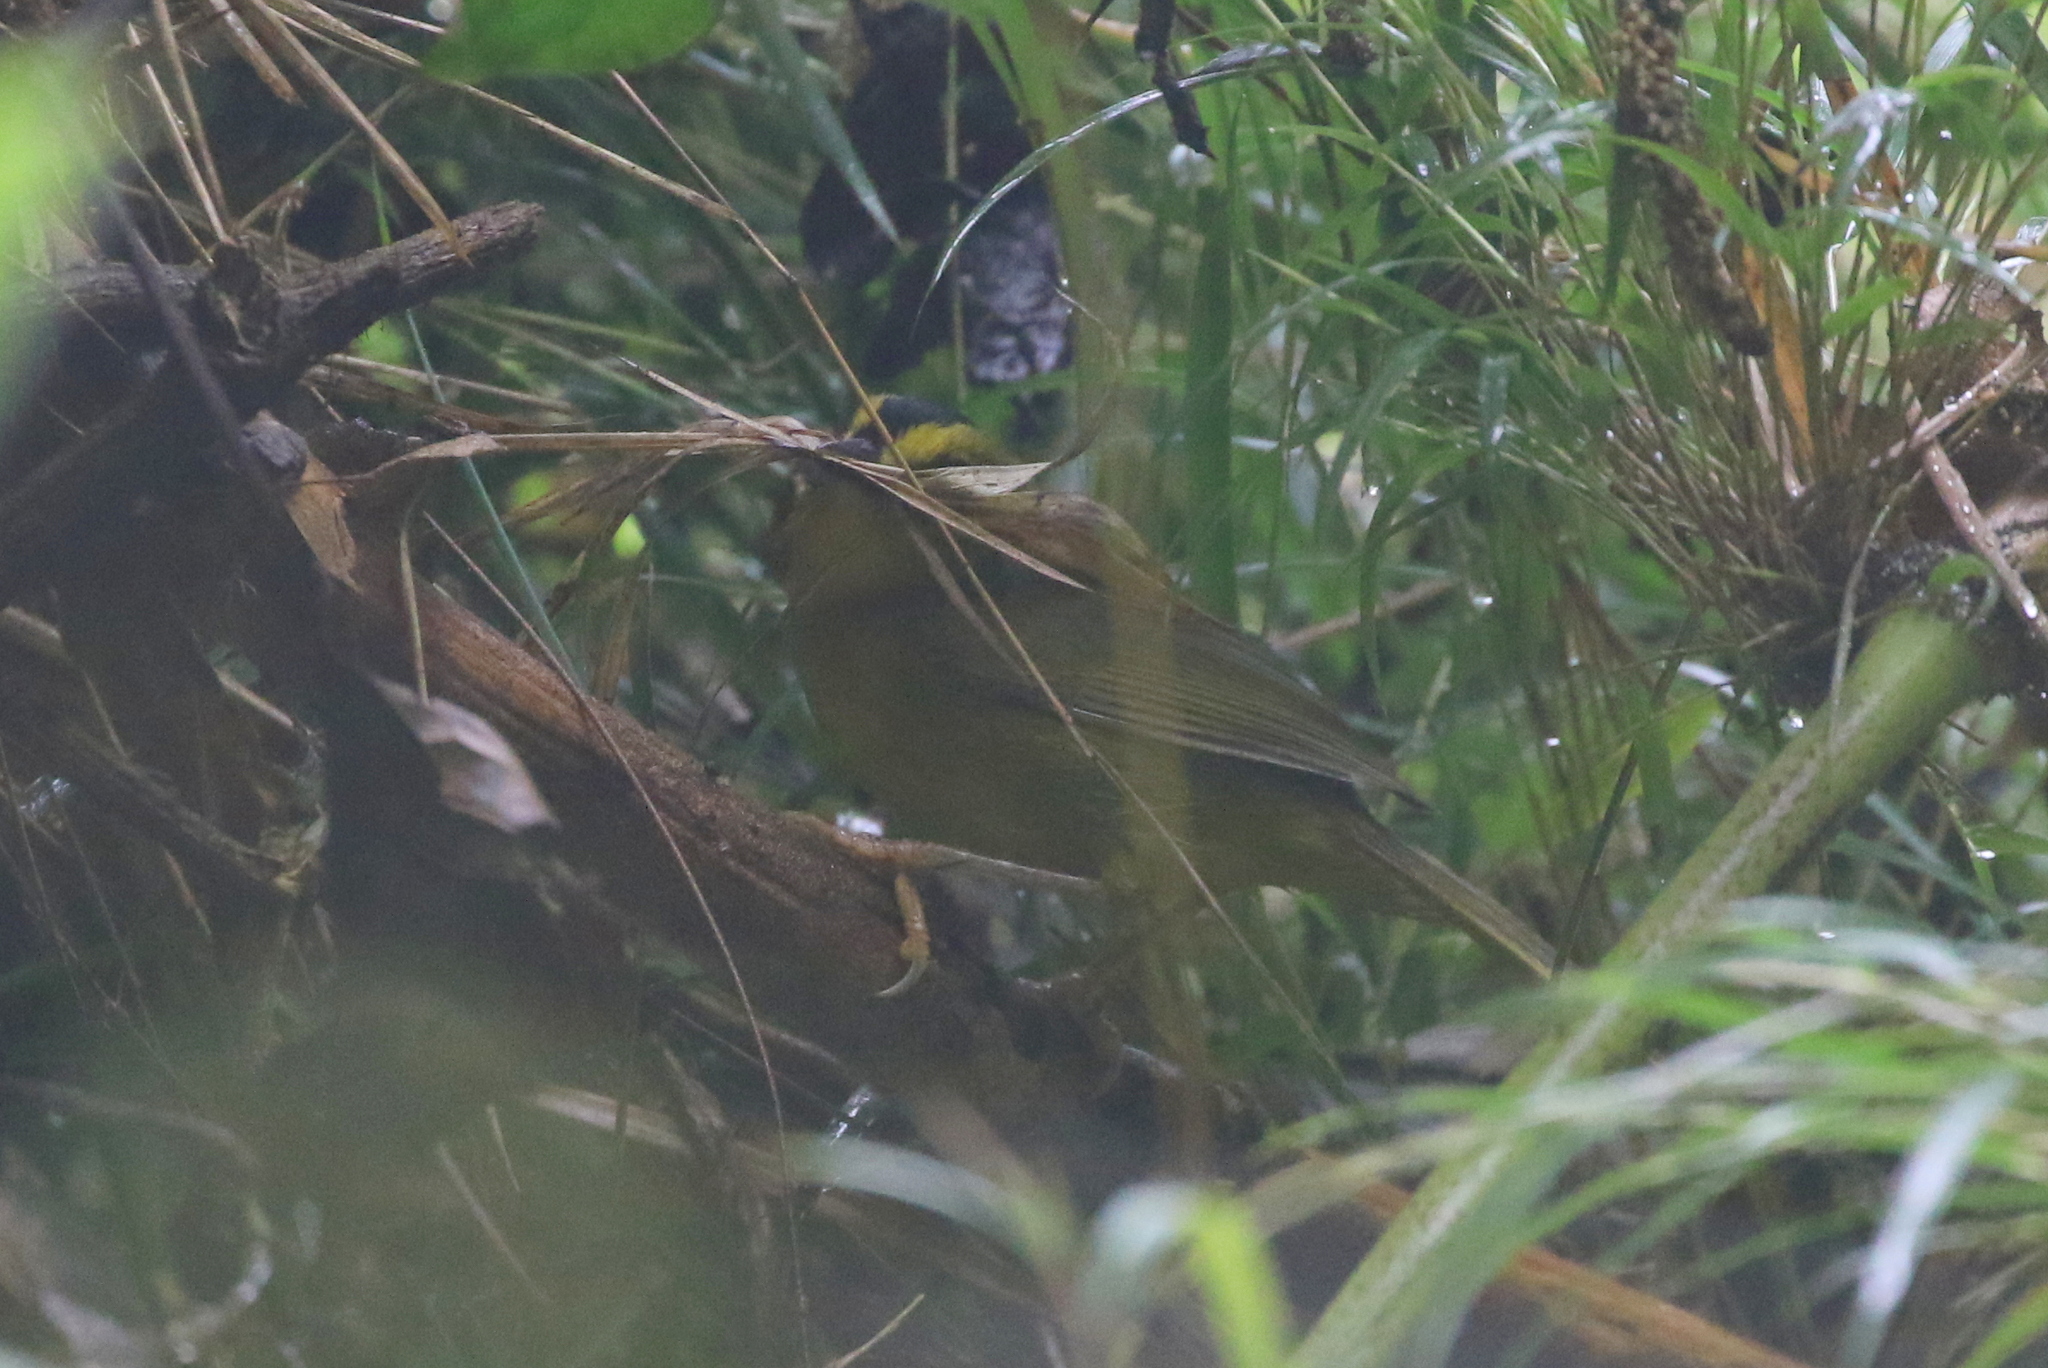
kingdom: Animalia
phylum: Chordata
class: Aves
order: Passeriformes
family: Parulidae
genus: Myiothlypis
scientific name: Myiothlypis nigrocristata
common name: Black-crested warbler
